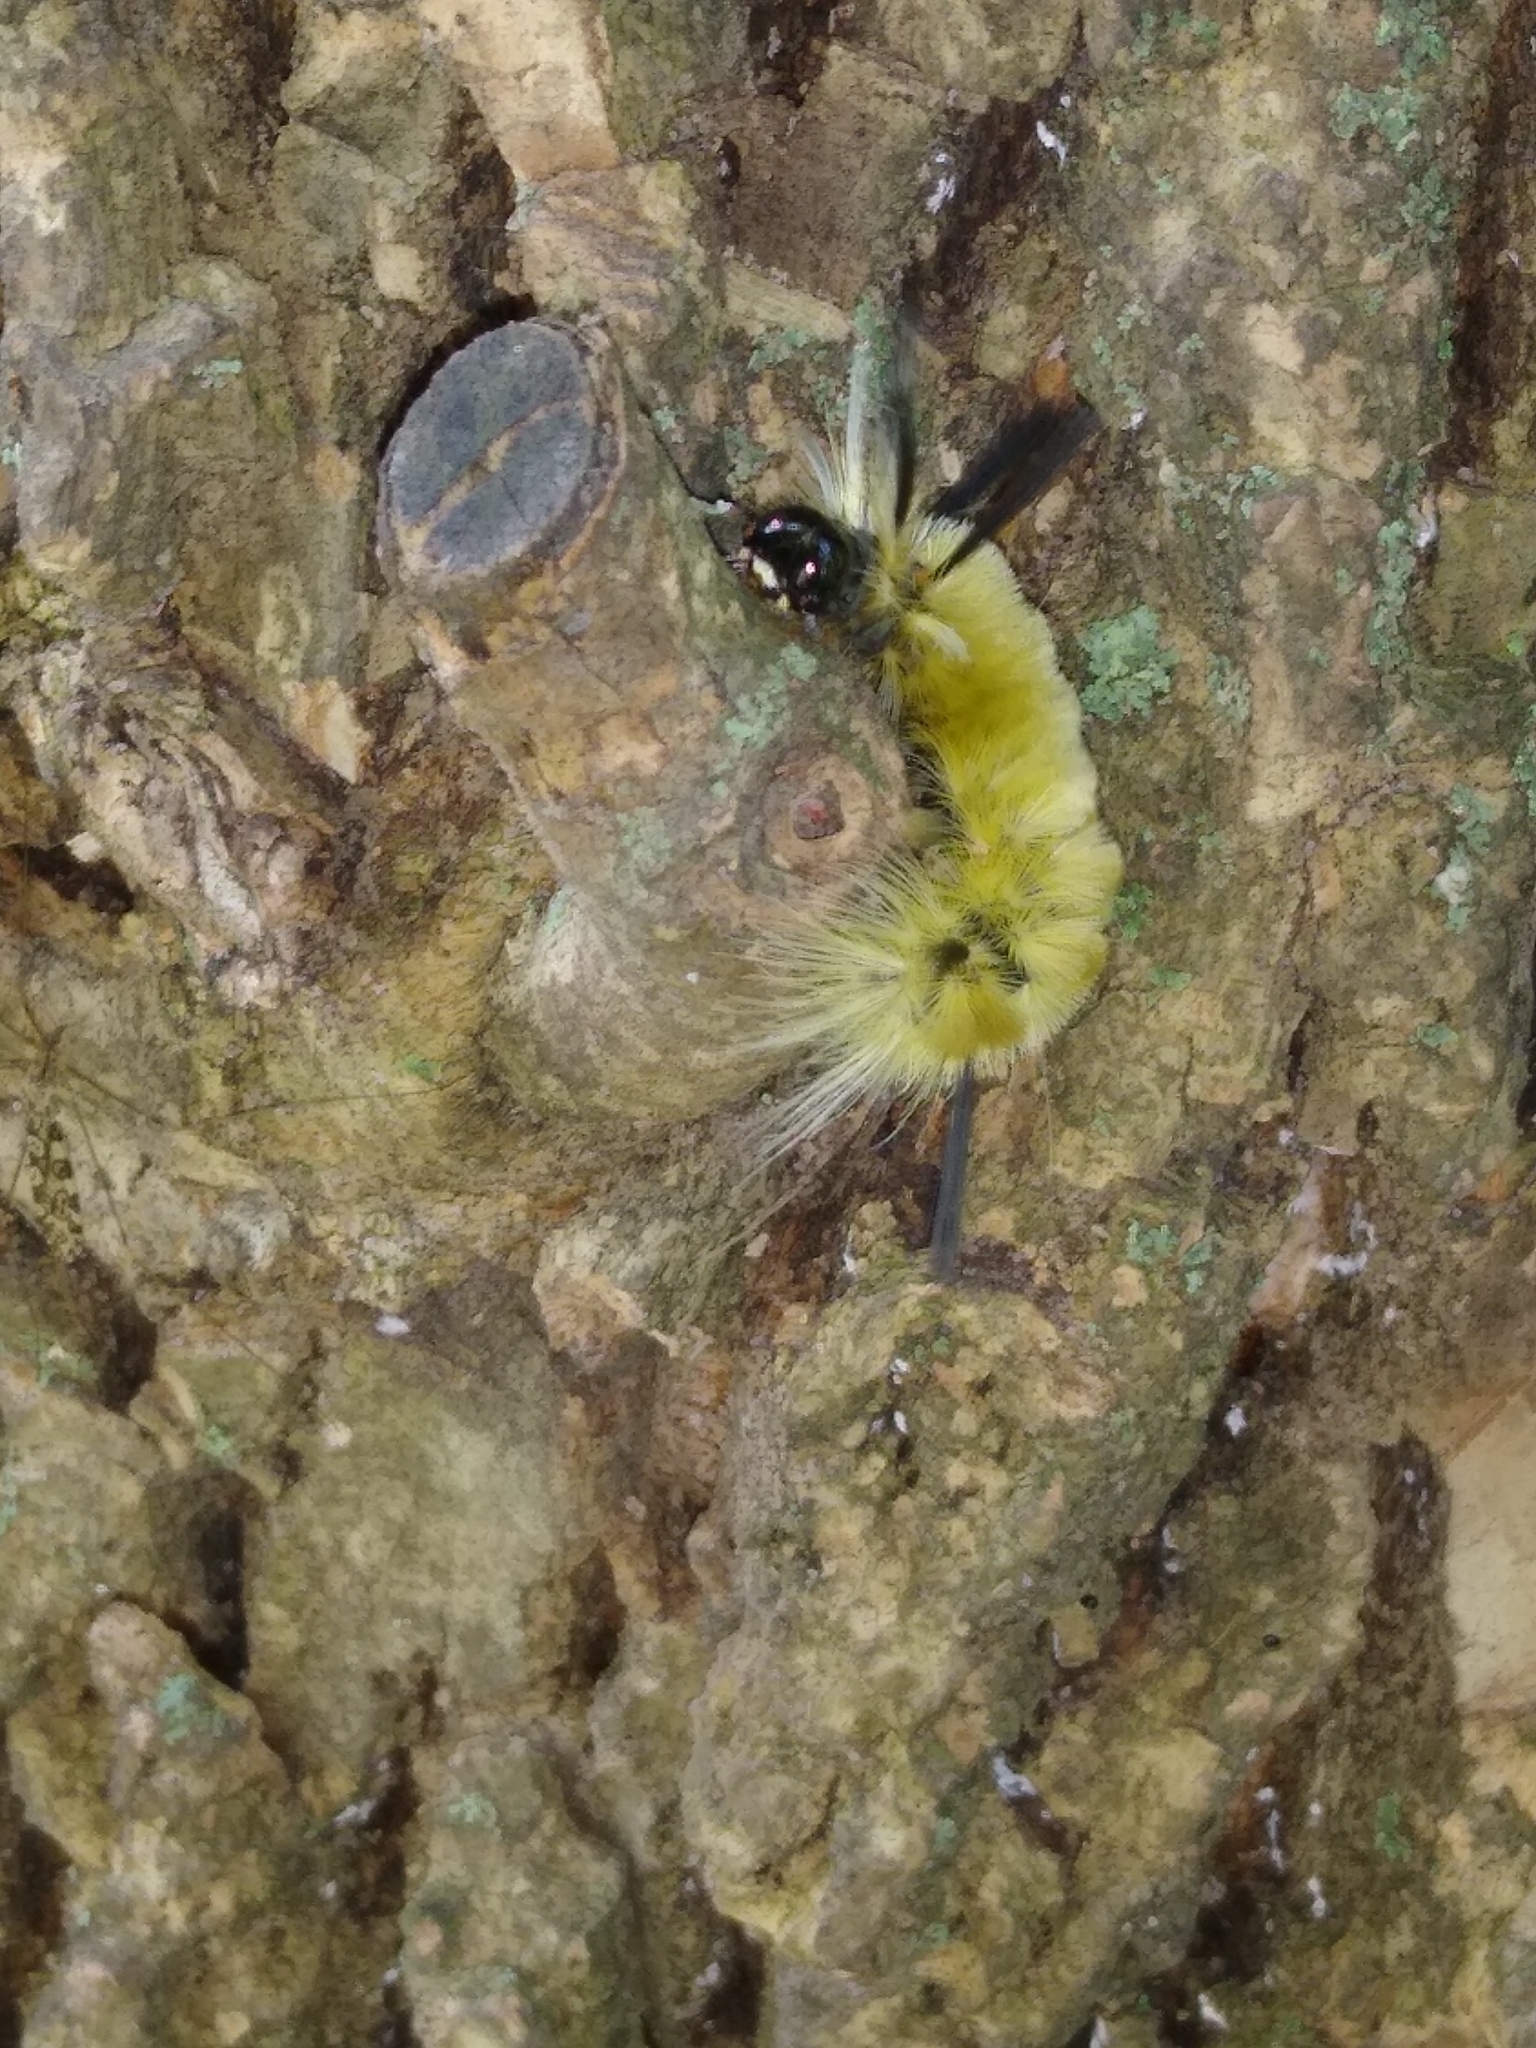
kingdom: Animalia
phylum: Arthropoda
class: Insecta
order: Lepidoptera
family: Erebidae
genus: Halysidota
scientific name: Halysidota tessellaris
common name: Banded tussock moth
